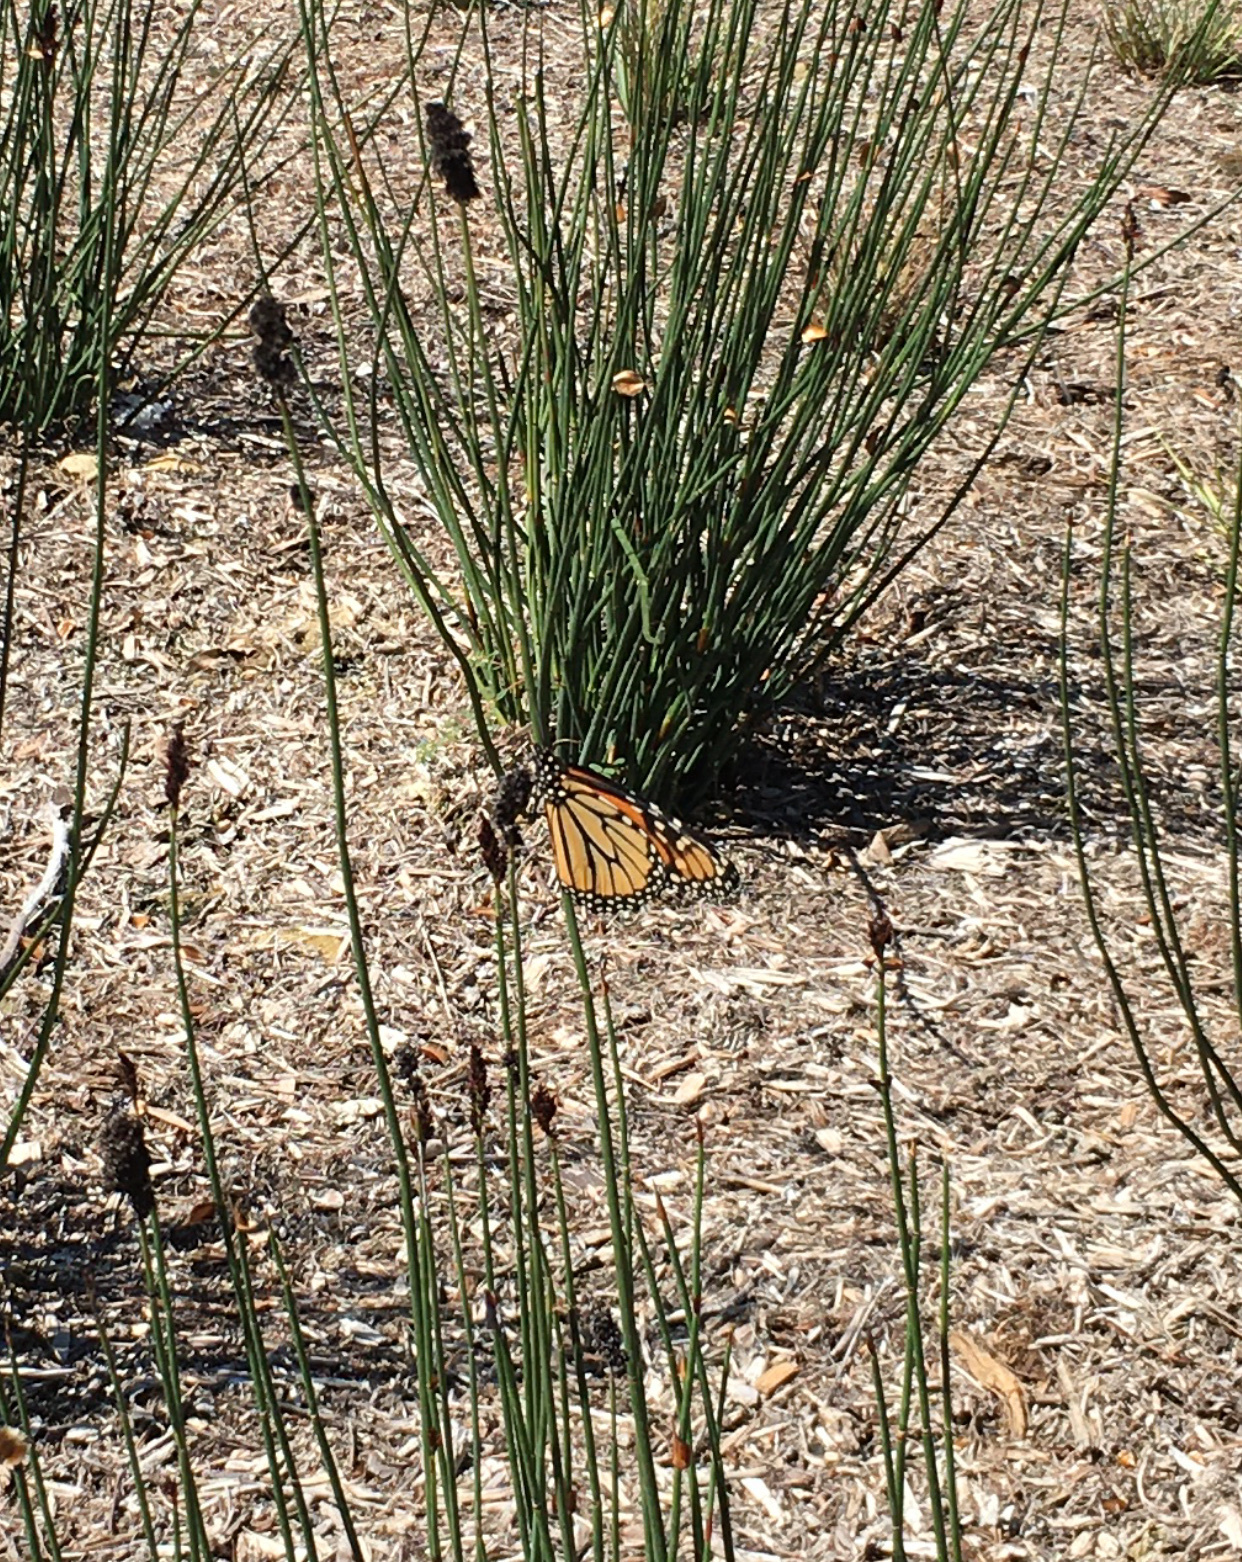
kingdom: Animalia
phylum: Arthropoda
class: Insecta
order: Lepidoptera
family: Nymphalidae
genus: Danaus
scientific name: Danaus plexippus
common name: Monarch
